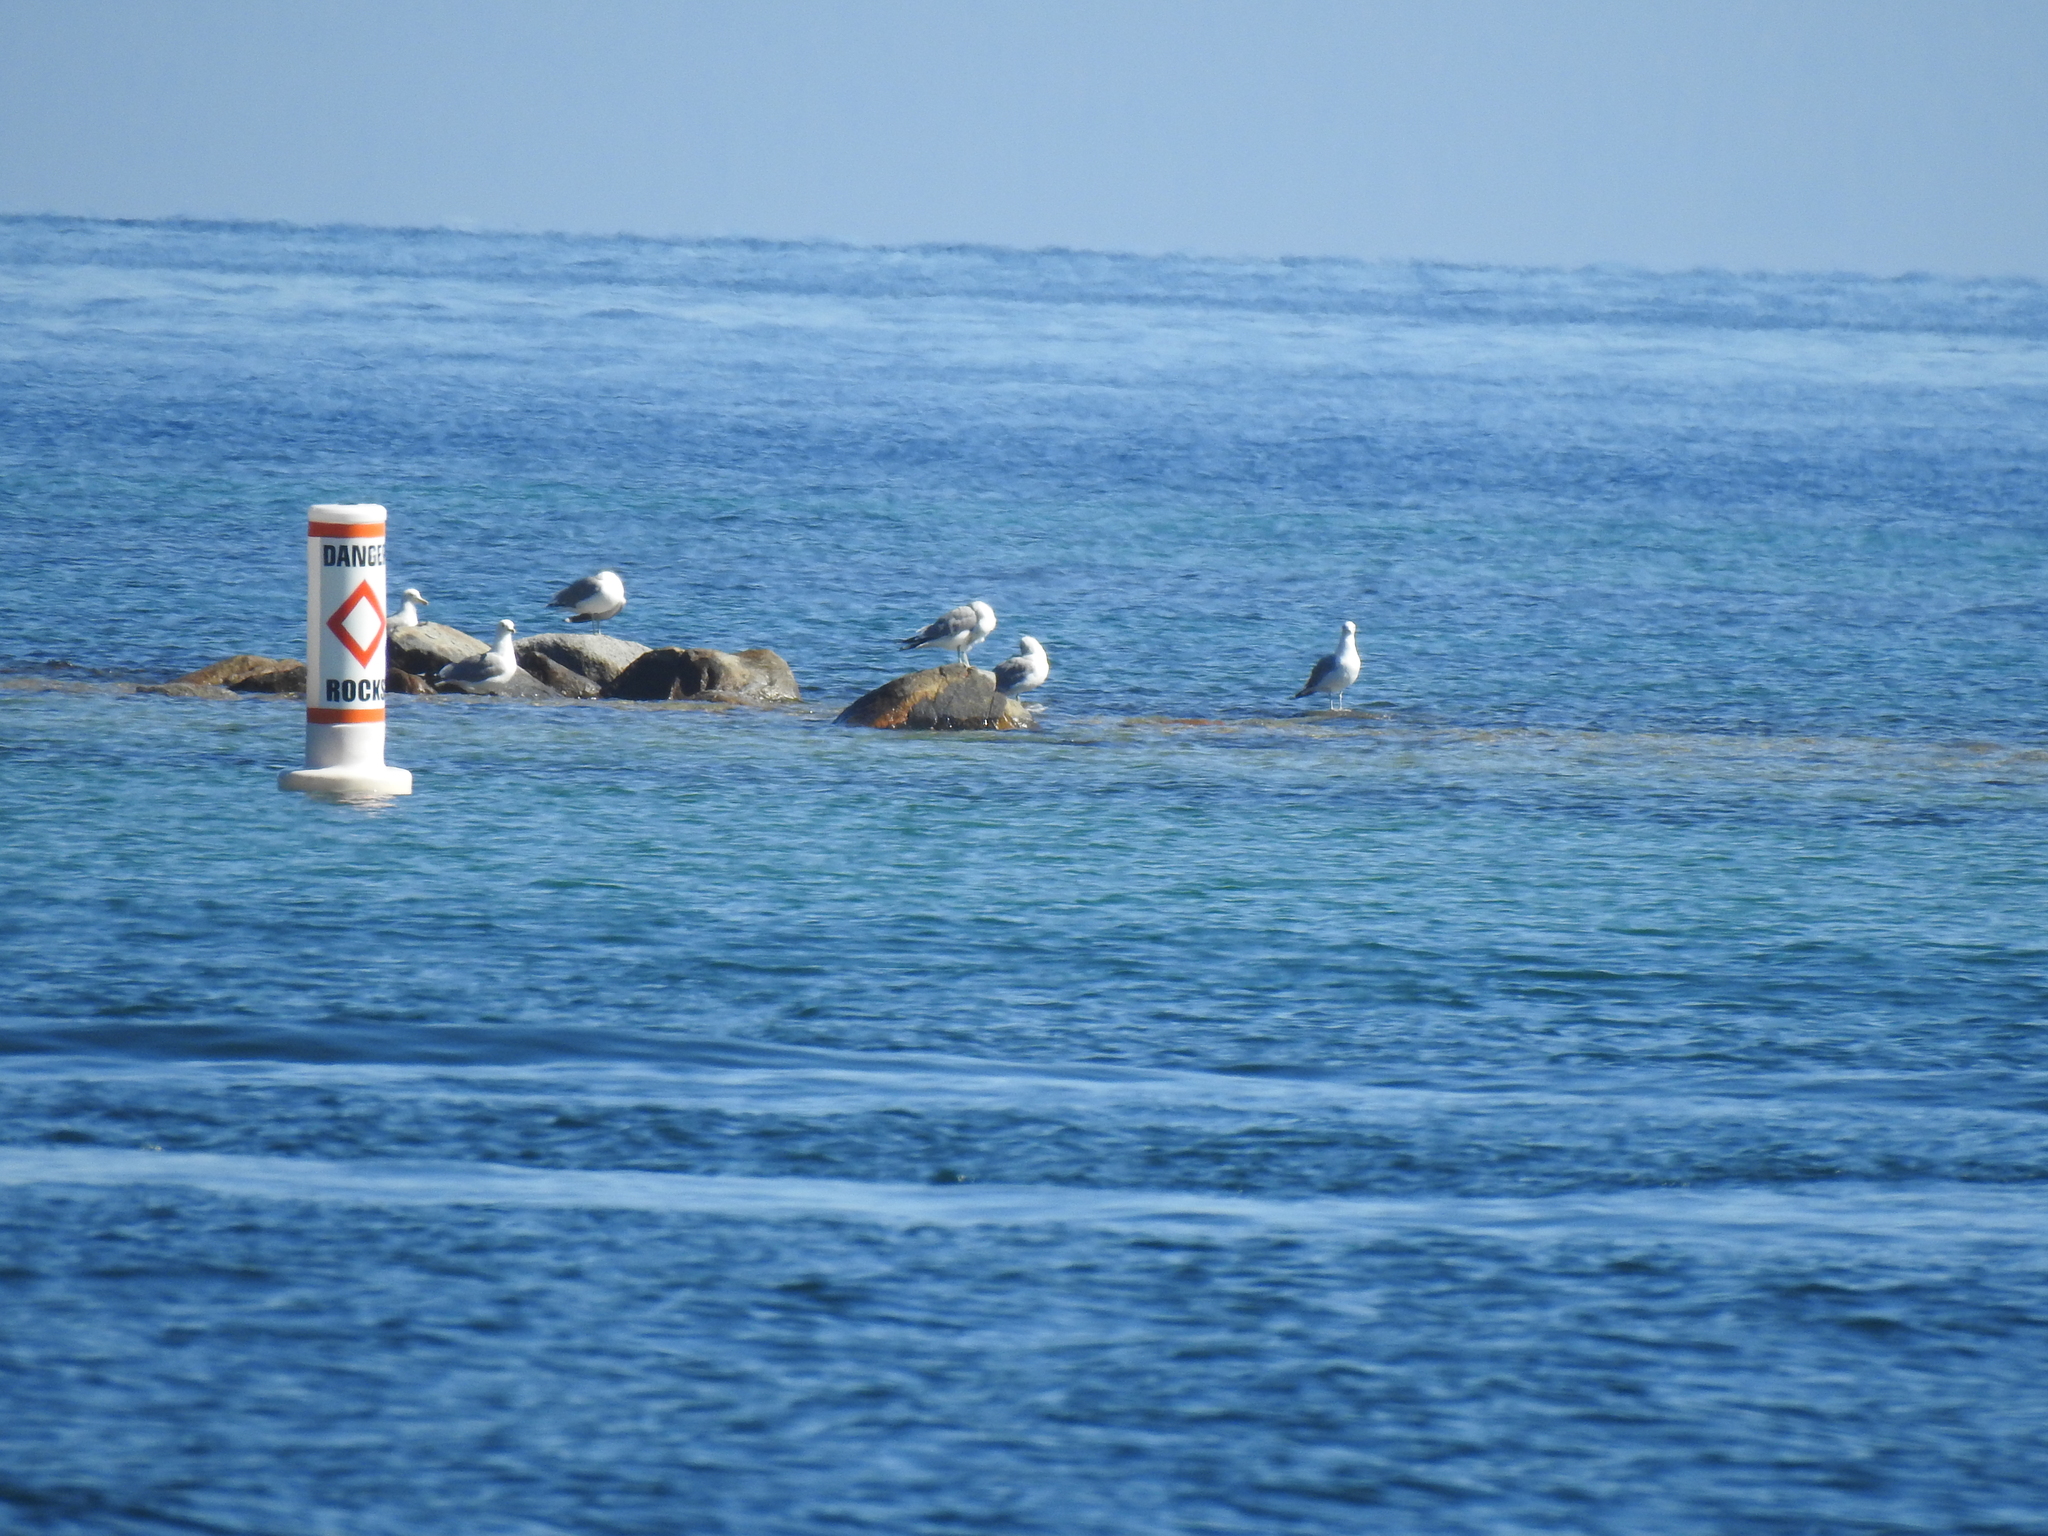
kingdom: Animalia
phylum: Chordata
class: Aves
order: Charadriiformes
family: Laridae
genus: Larus
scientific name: Larus californicus
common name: California gull
